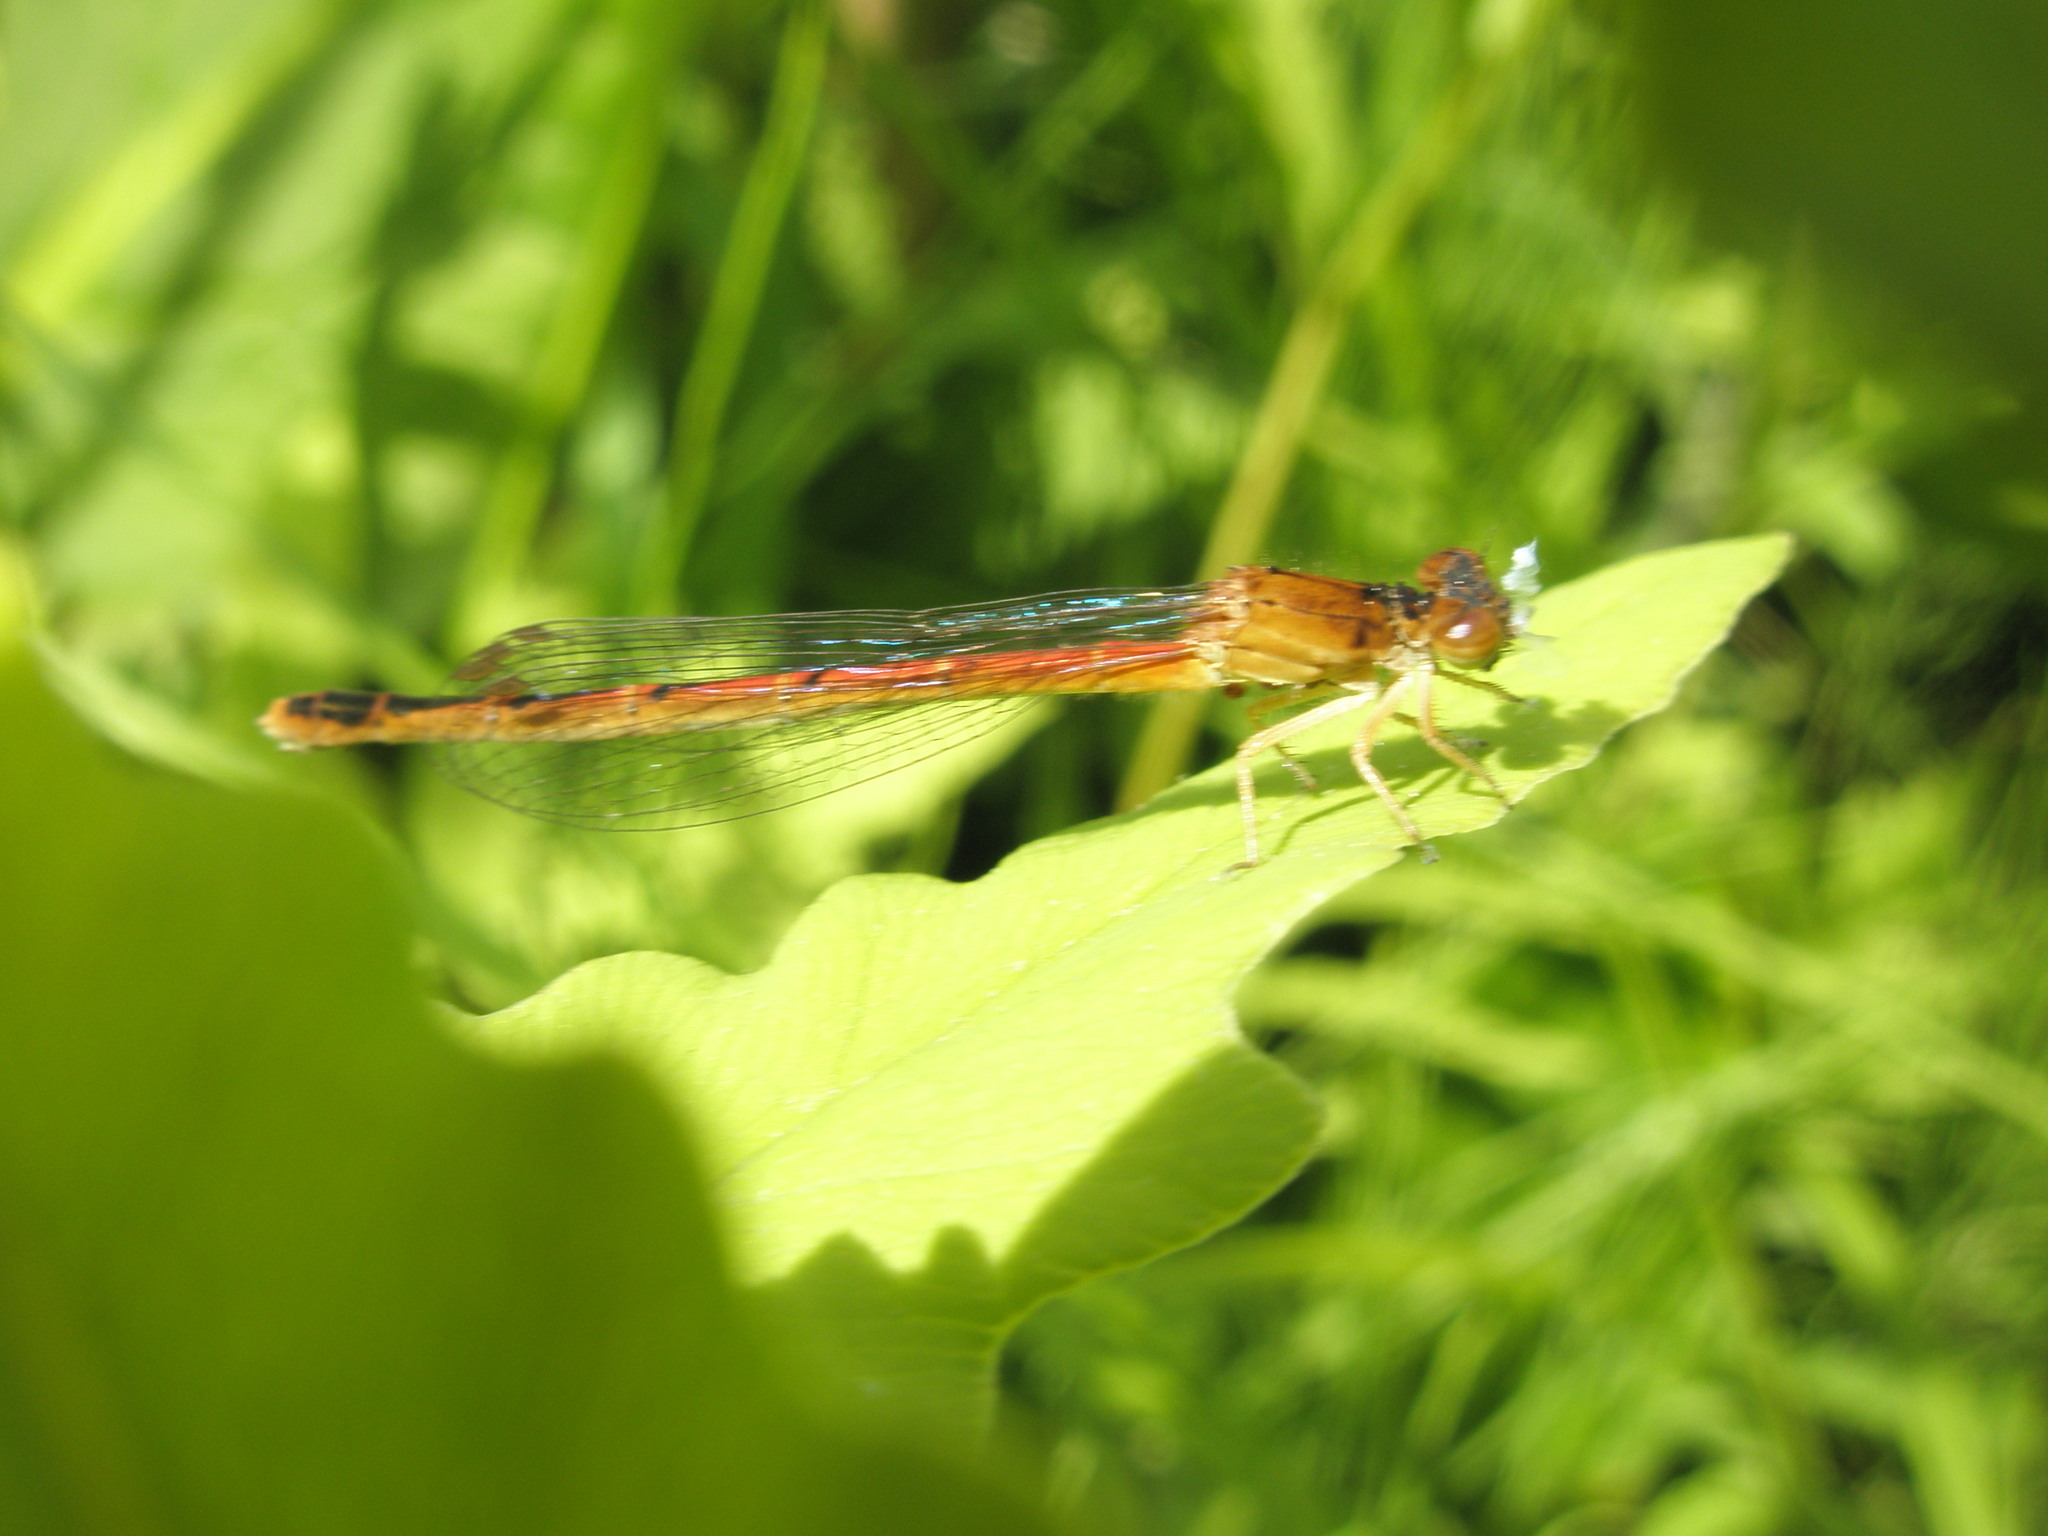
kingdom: Animalia
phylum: Arthropoda
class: Insecta
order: Odonata
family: Coenagrionidae
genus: Amphiagrion
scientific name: Amphiagrion saucium
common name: Eastern red damsel
